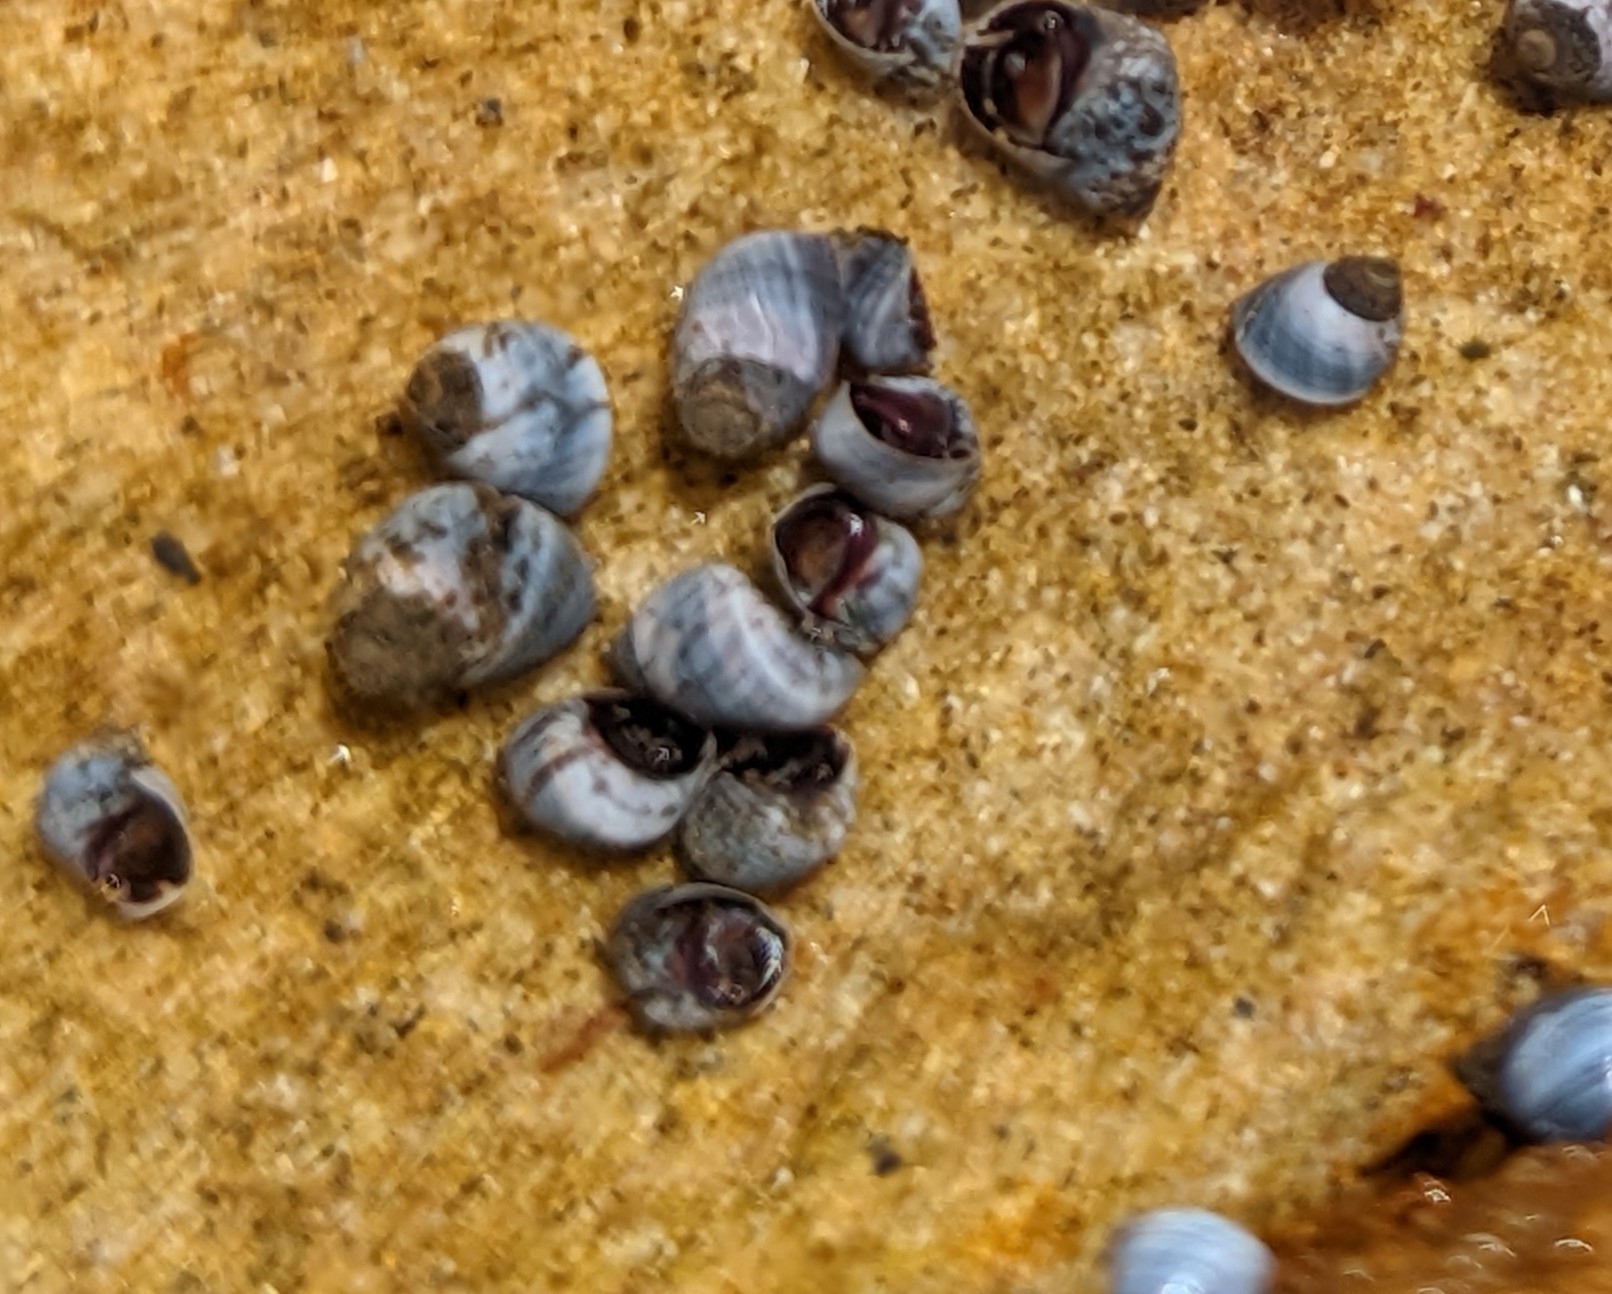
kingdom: Animalia
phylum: Mollusca
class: Gastropoda
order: Littorinimorpha
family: Littorinidae
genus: Austrolittorina
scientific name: Austrolittorina unifasciata
